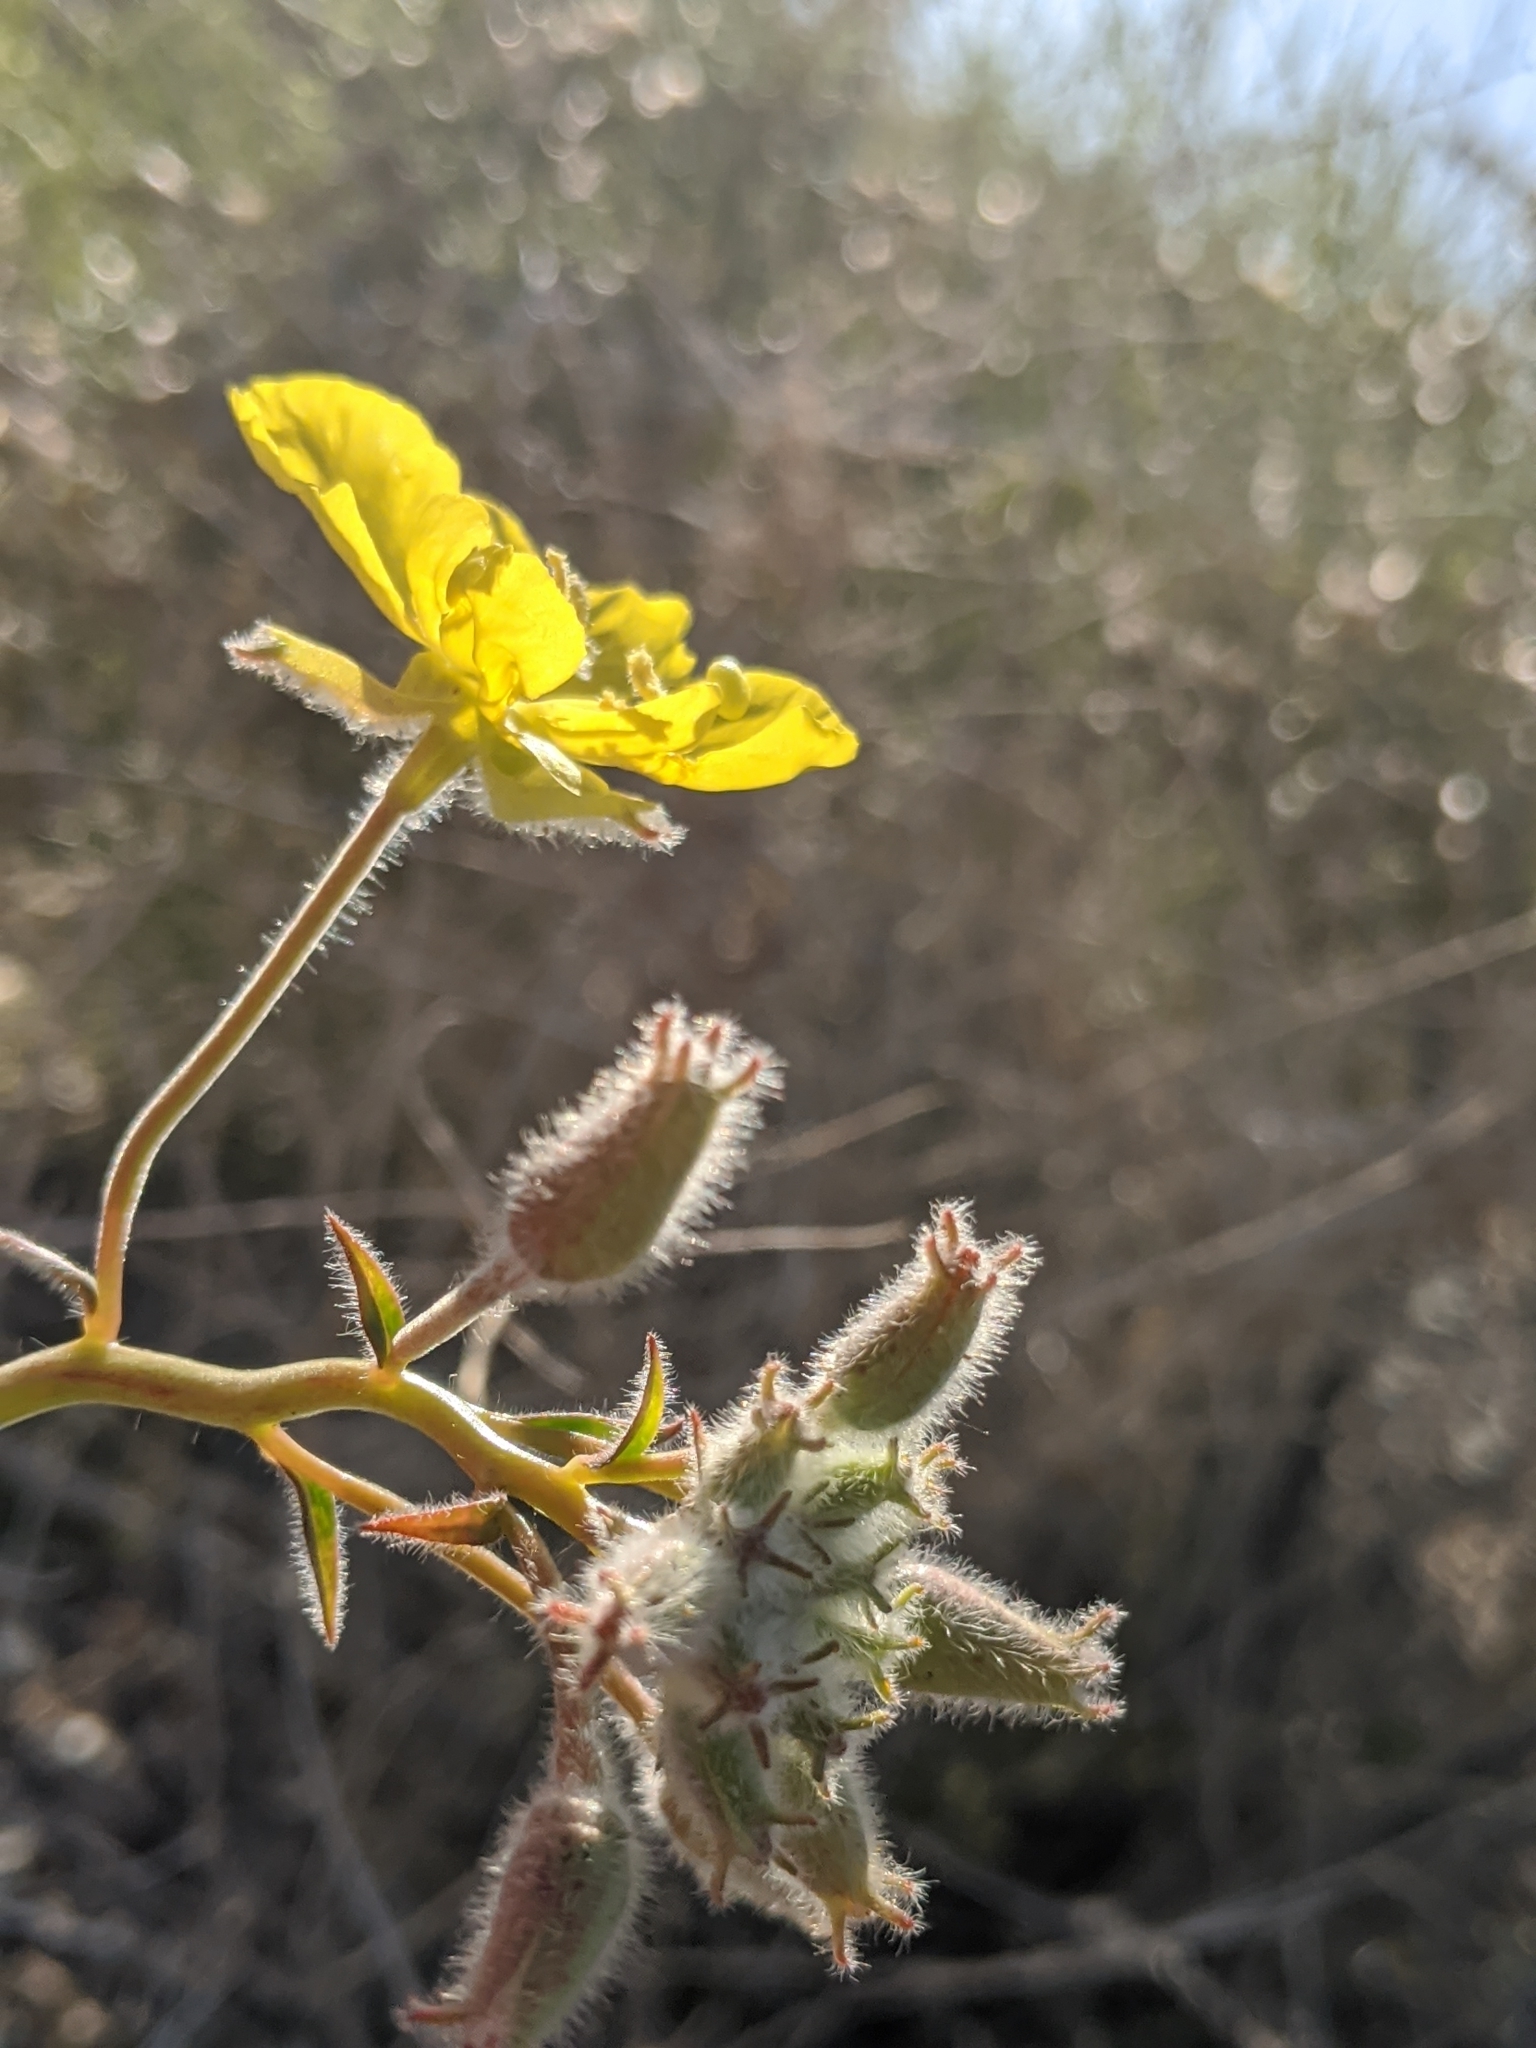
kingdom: Plantae
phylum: Tracheophyta
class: Magnoliopsida
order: Myrtales
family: Onagraceae
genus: Chylismia
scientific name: Chylismia brevipes
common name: Yellow cups
